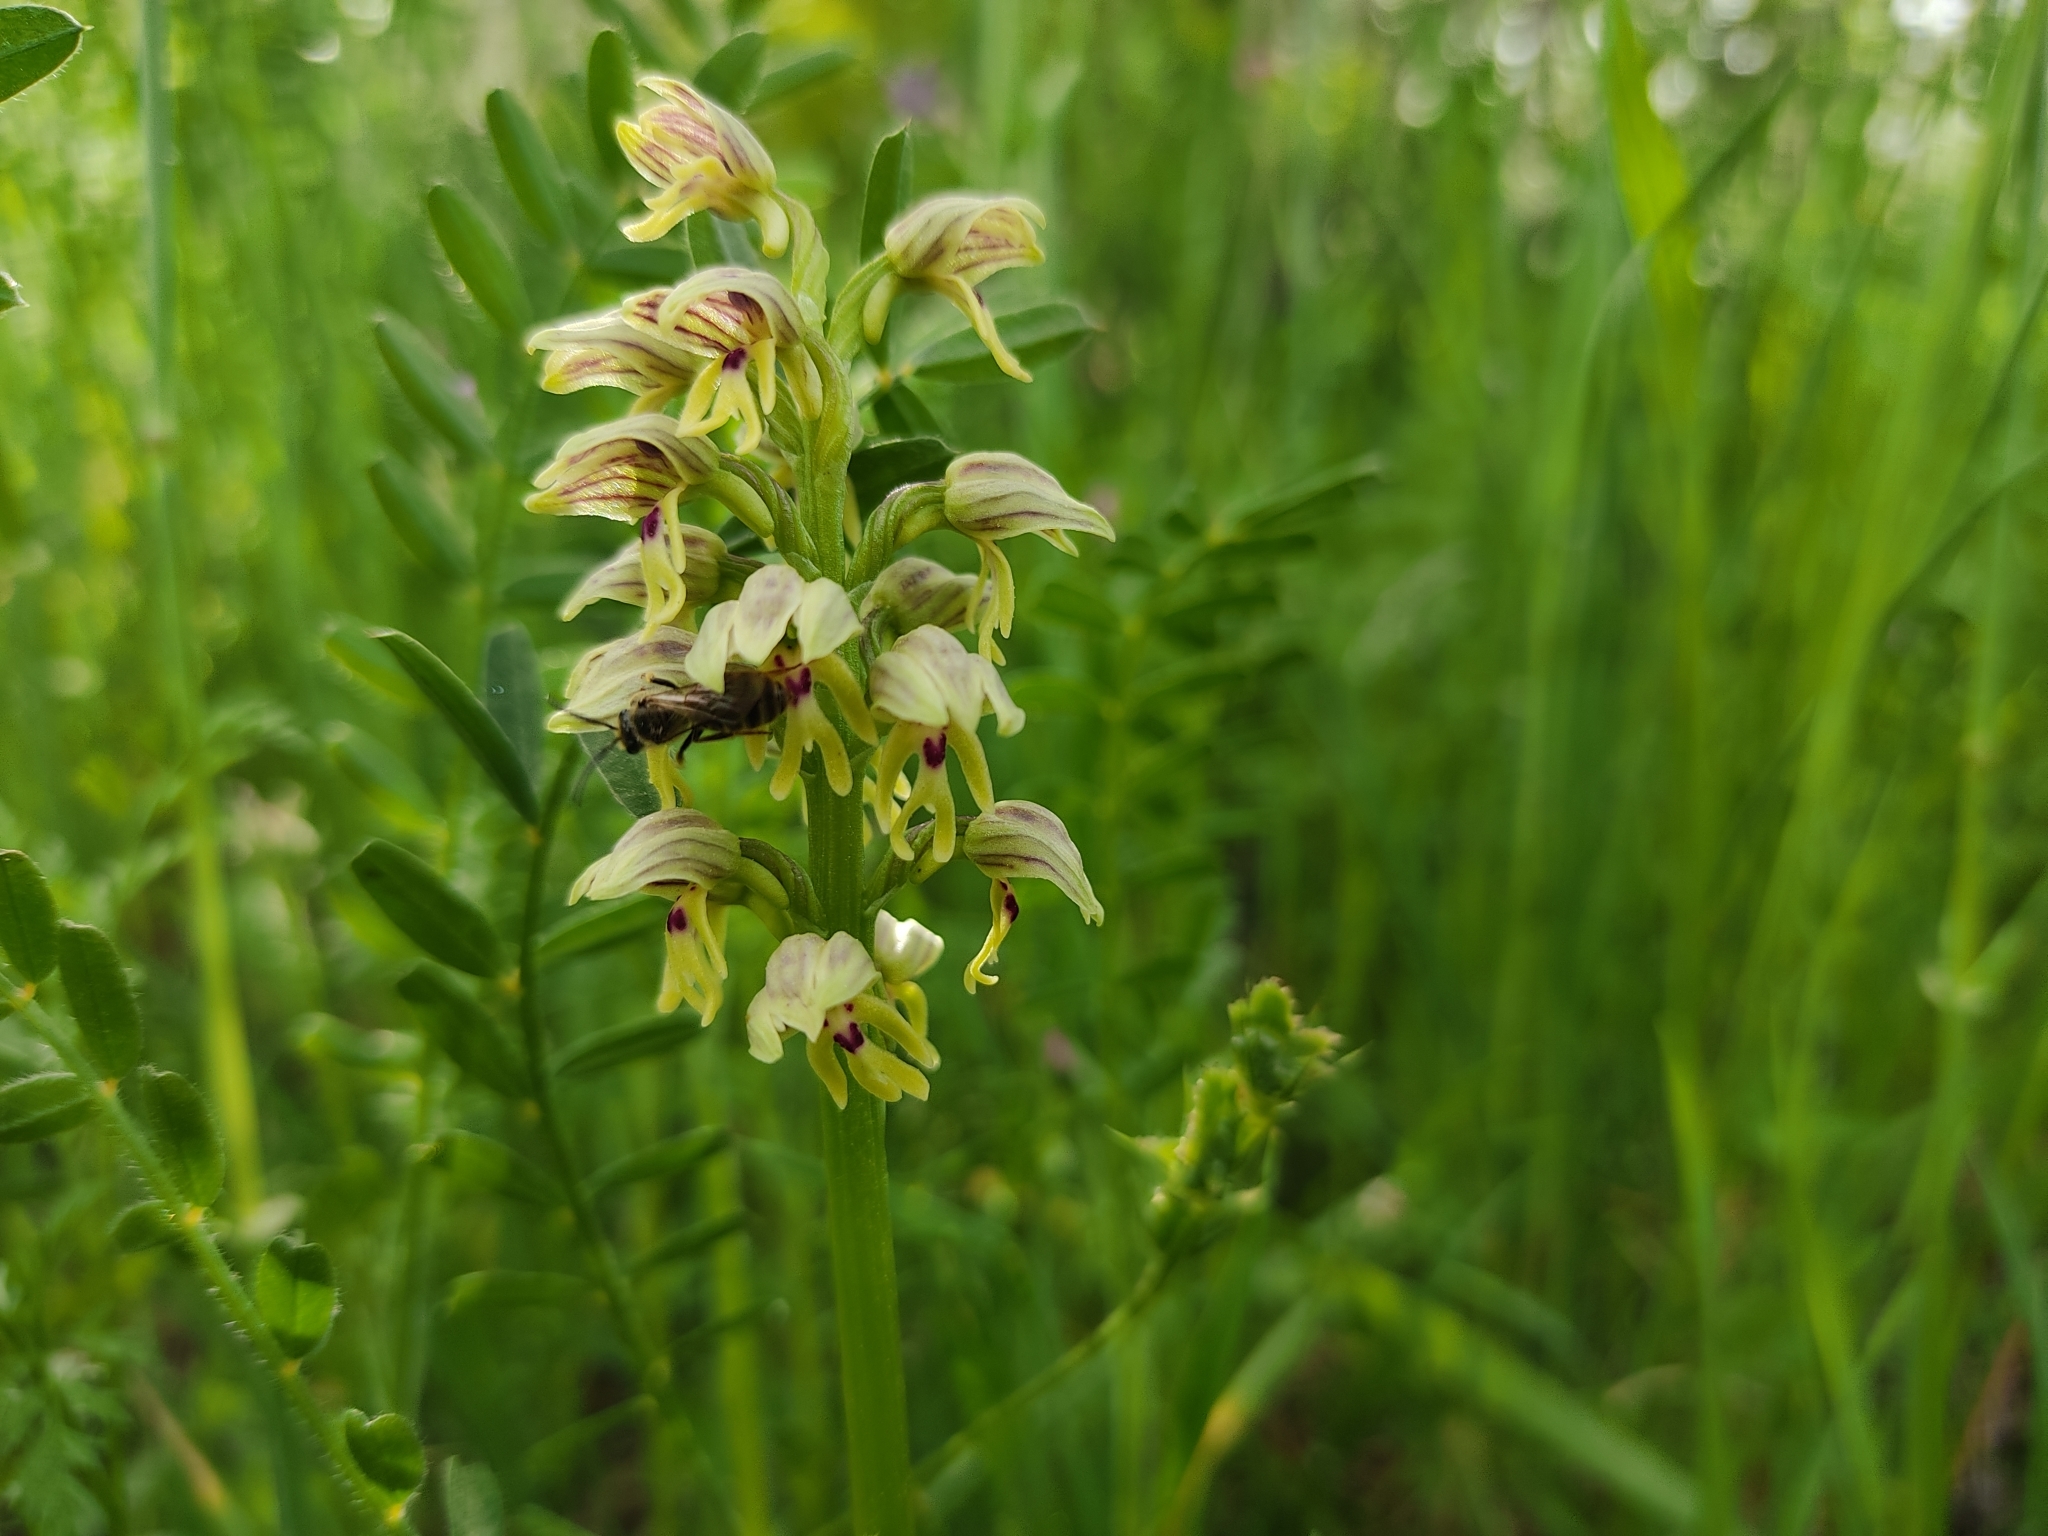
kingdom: Plantae
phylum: Tracheophyta
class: Liliopsida
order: Asparagales
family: Orchidaceae
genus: Orchis
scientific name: Orchis galilaea
